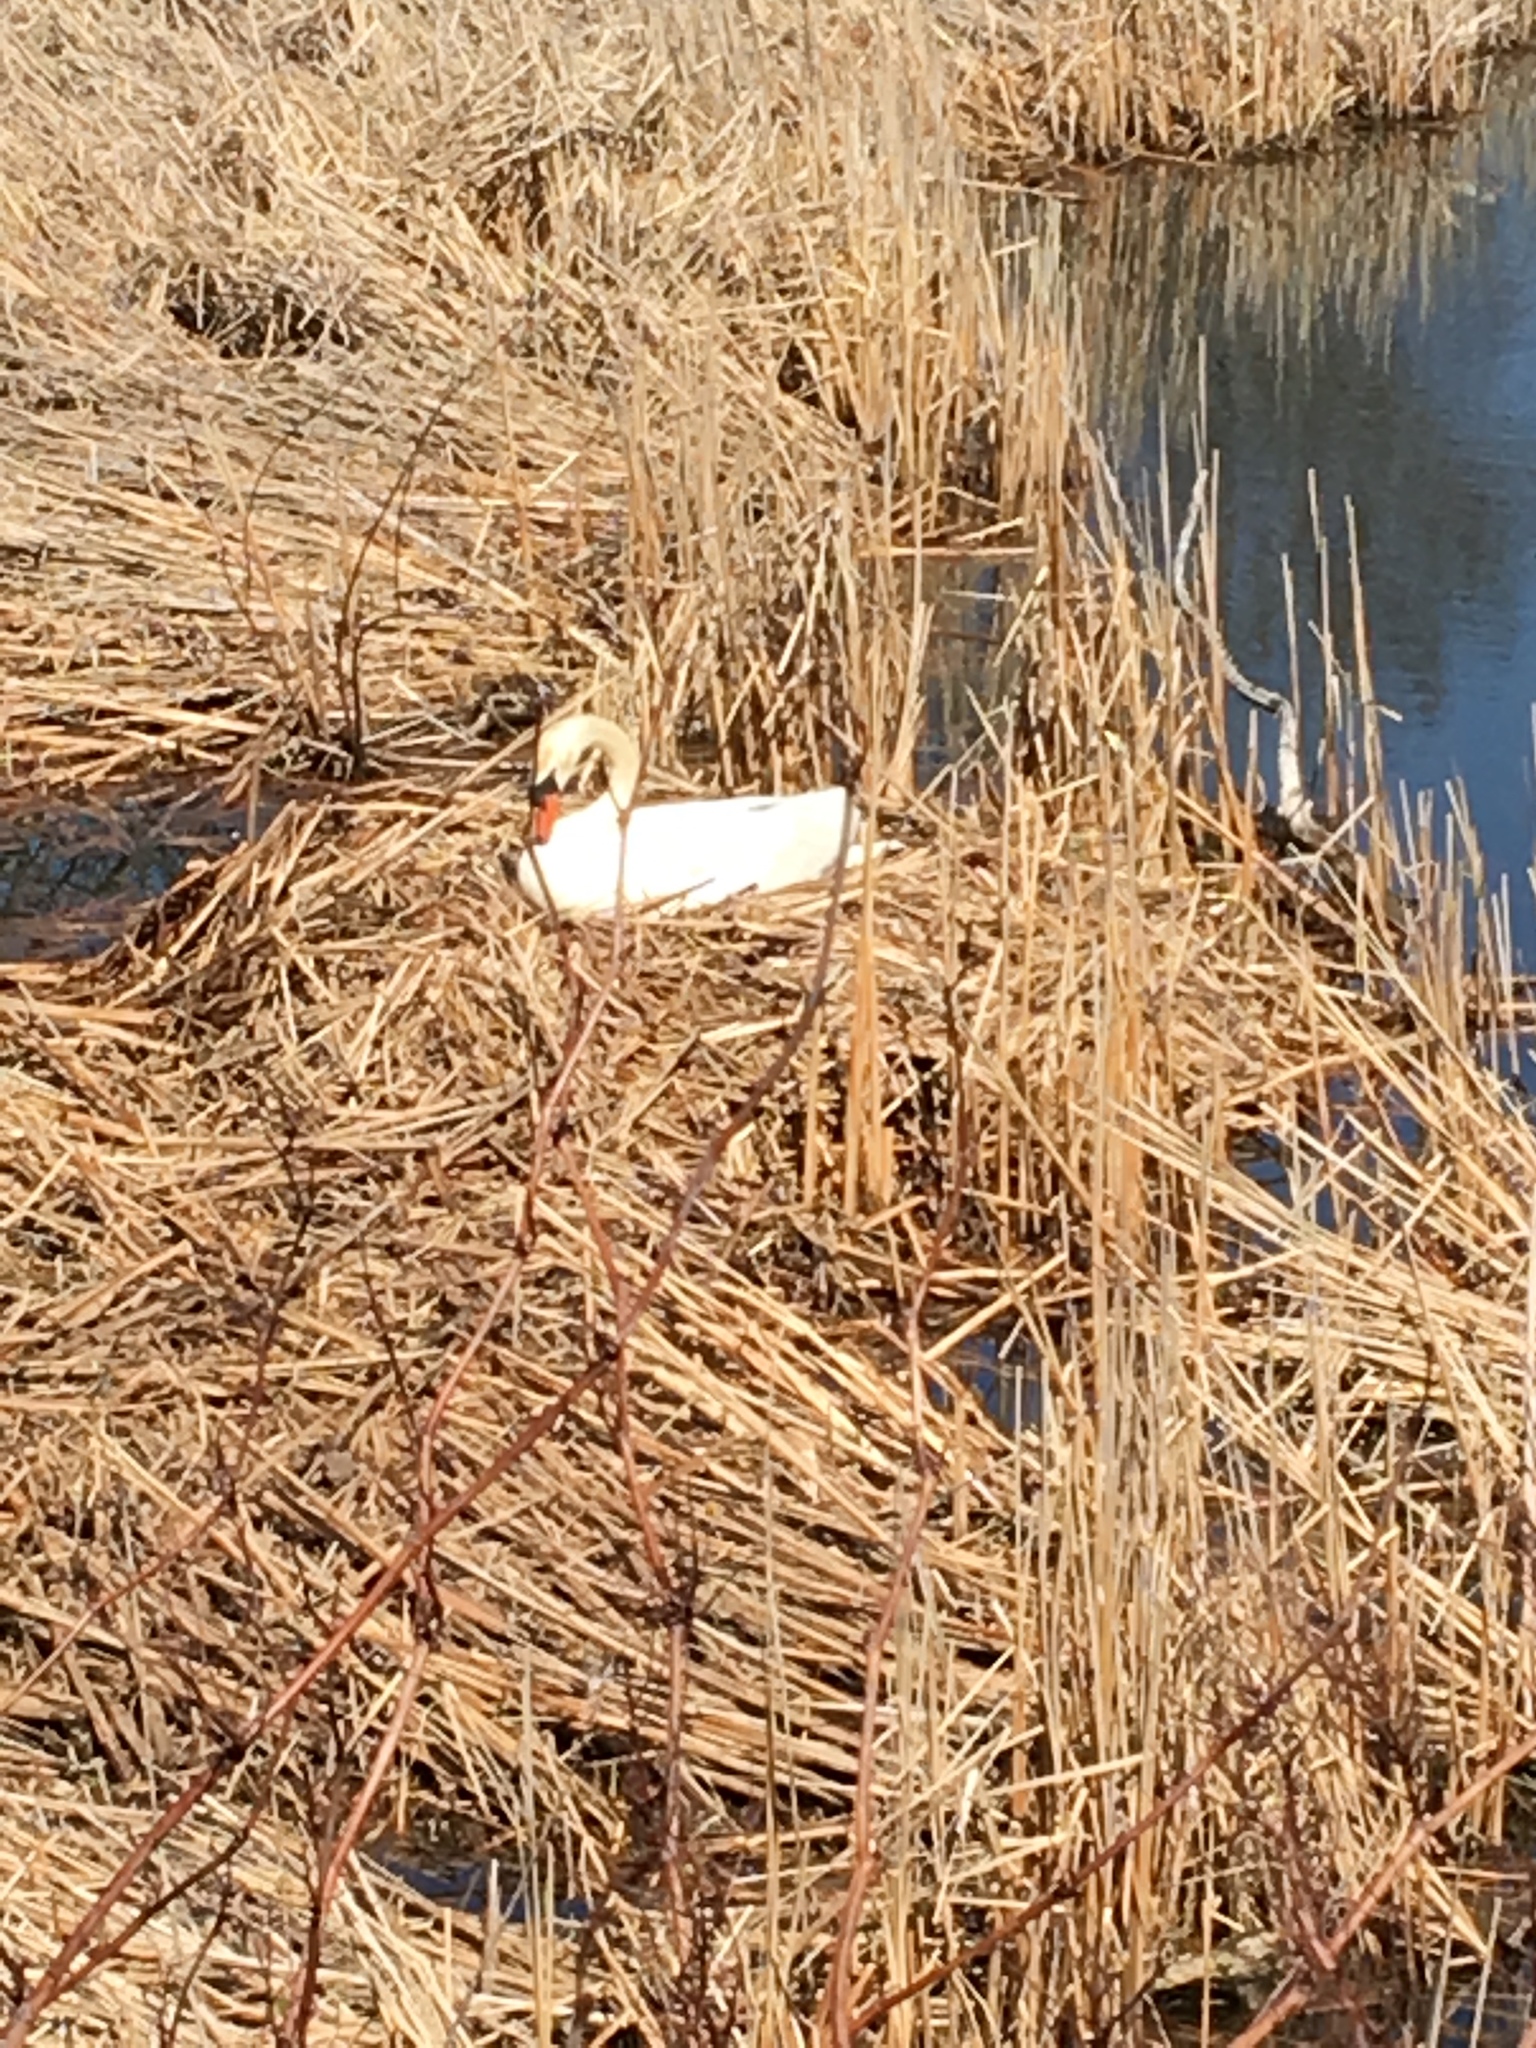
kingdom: Animalia
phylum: Chordata
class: Aves
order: Anseriformes
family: Anatidae
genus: Cygnus
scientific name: Cygnus olor
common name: Mute swan
